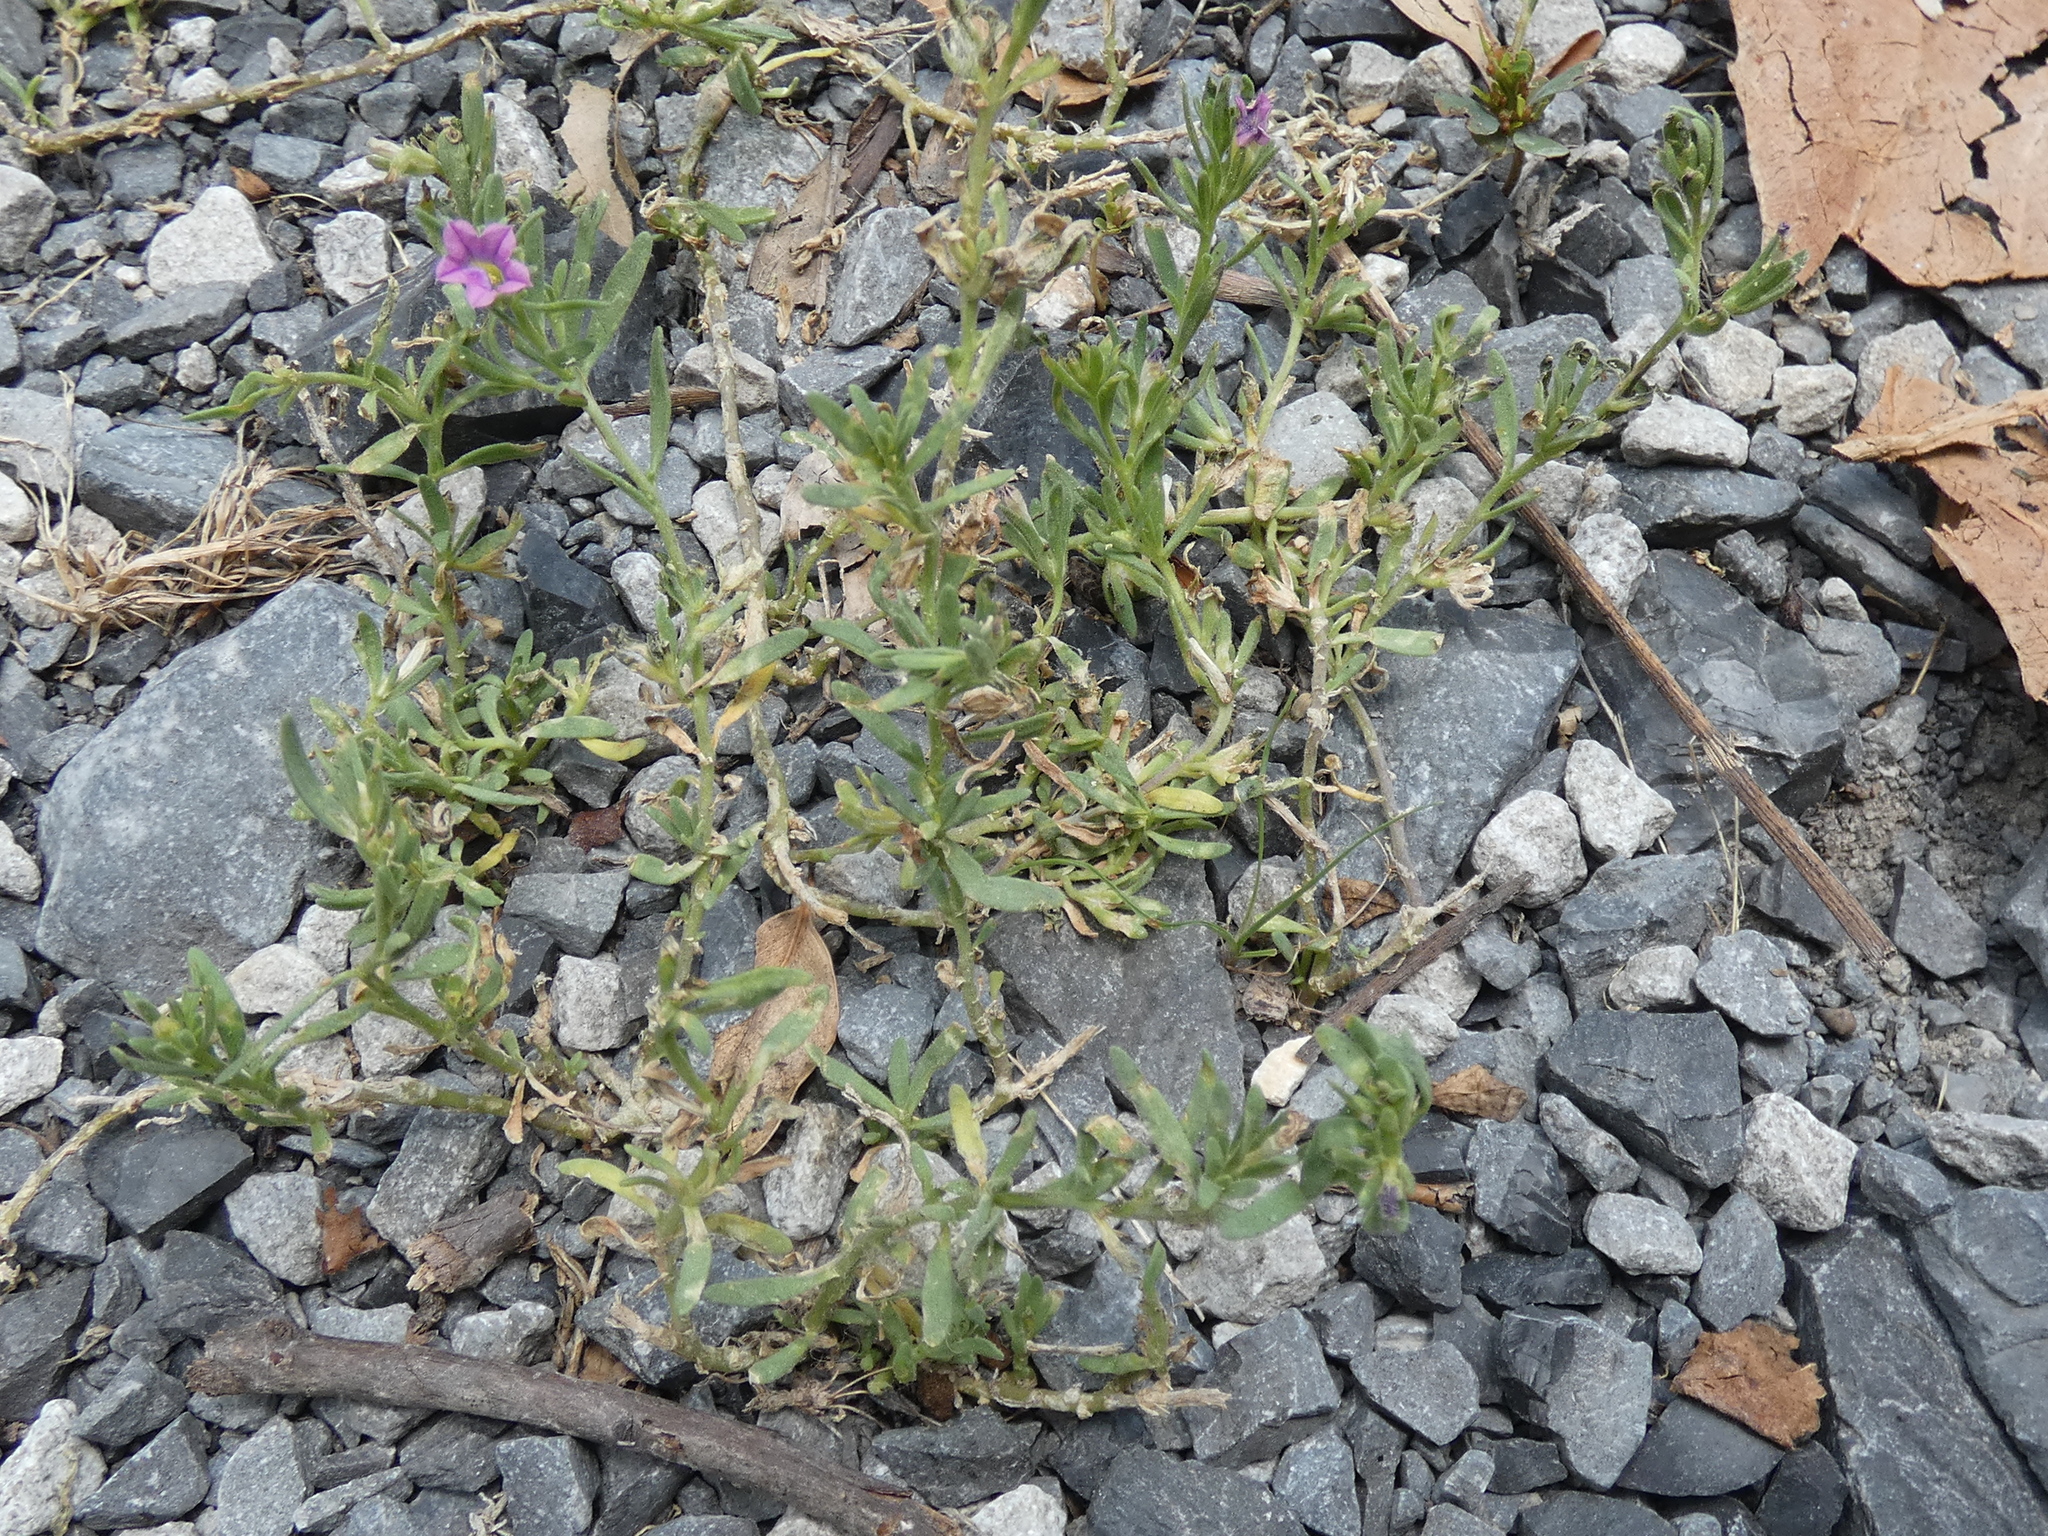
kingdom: Plantae
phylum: Tracheophyta
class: Magnoliopsida
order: Solanales
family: Solanaceae
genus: Calibrachoa
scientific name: Calibrachoa parviflora
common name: Seaside petunia
